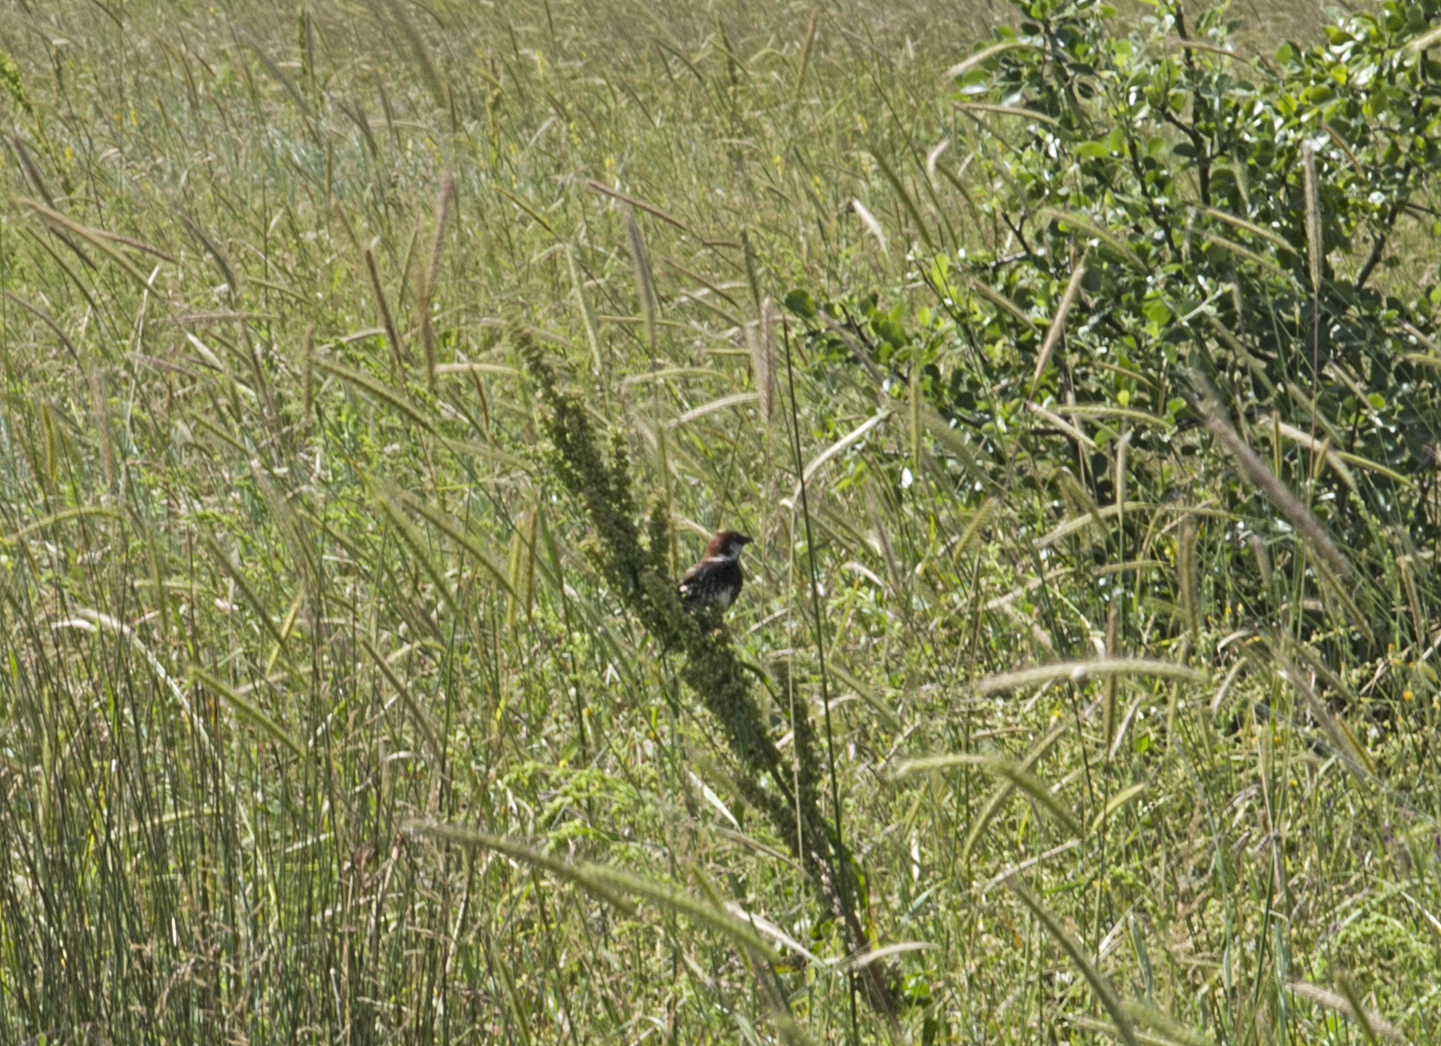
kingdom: Animalia
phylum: Chordata
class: Aves
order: Passeriformes
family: Passeridae
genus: Passer
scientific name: Passer hispaniolensis
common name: Spanish sparrow
